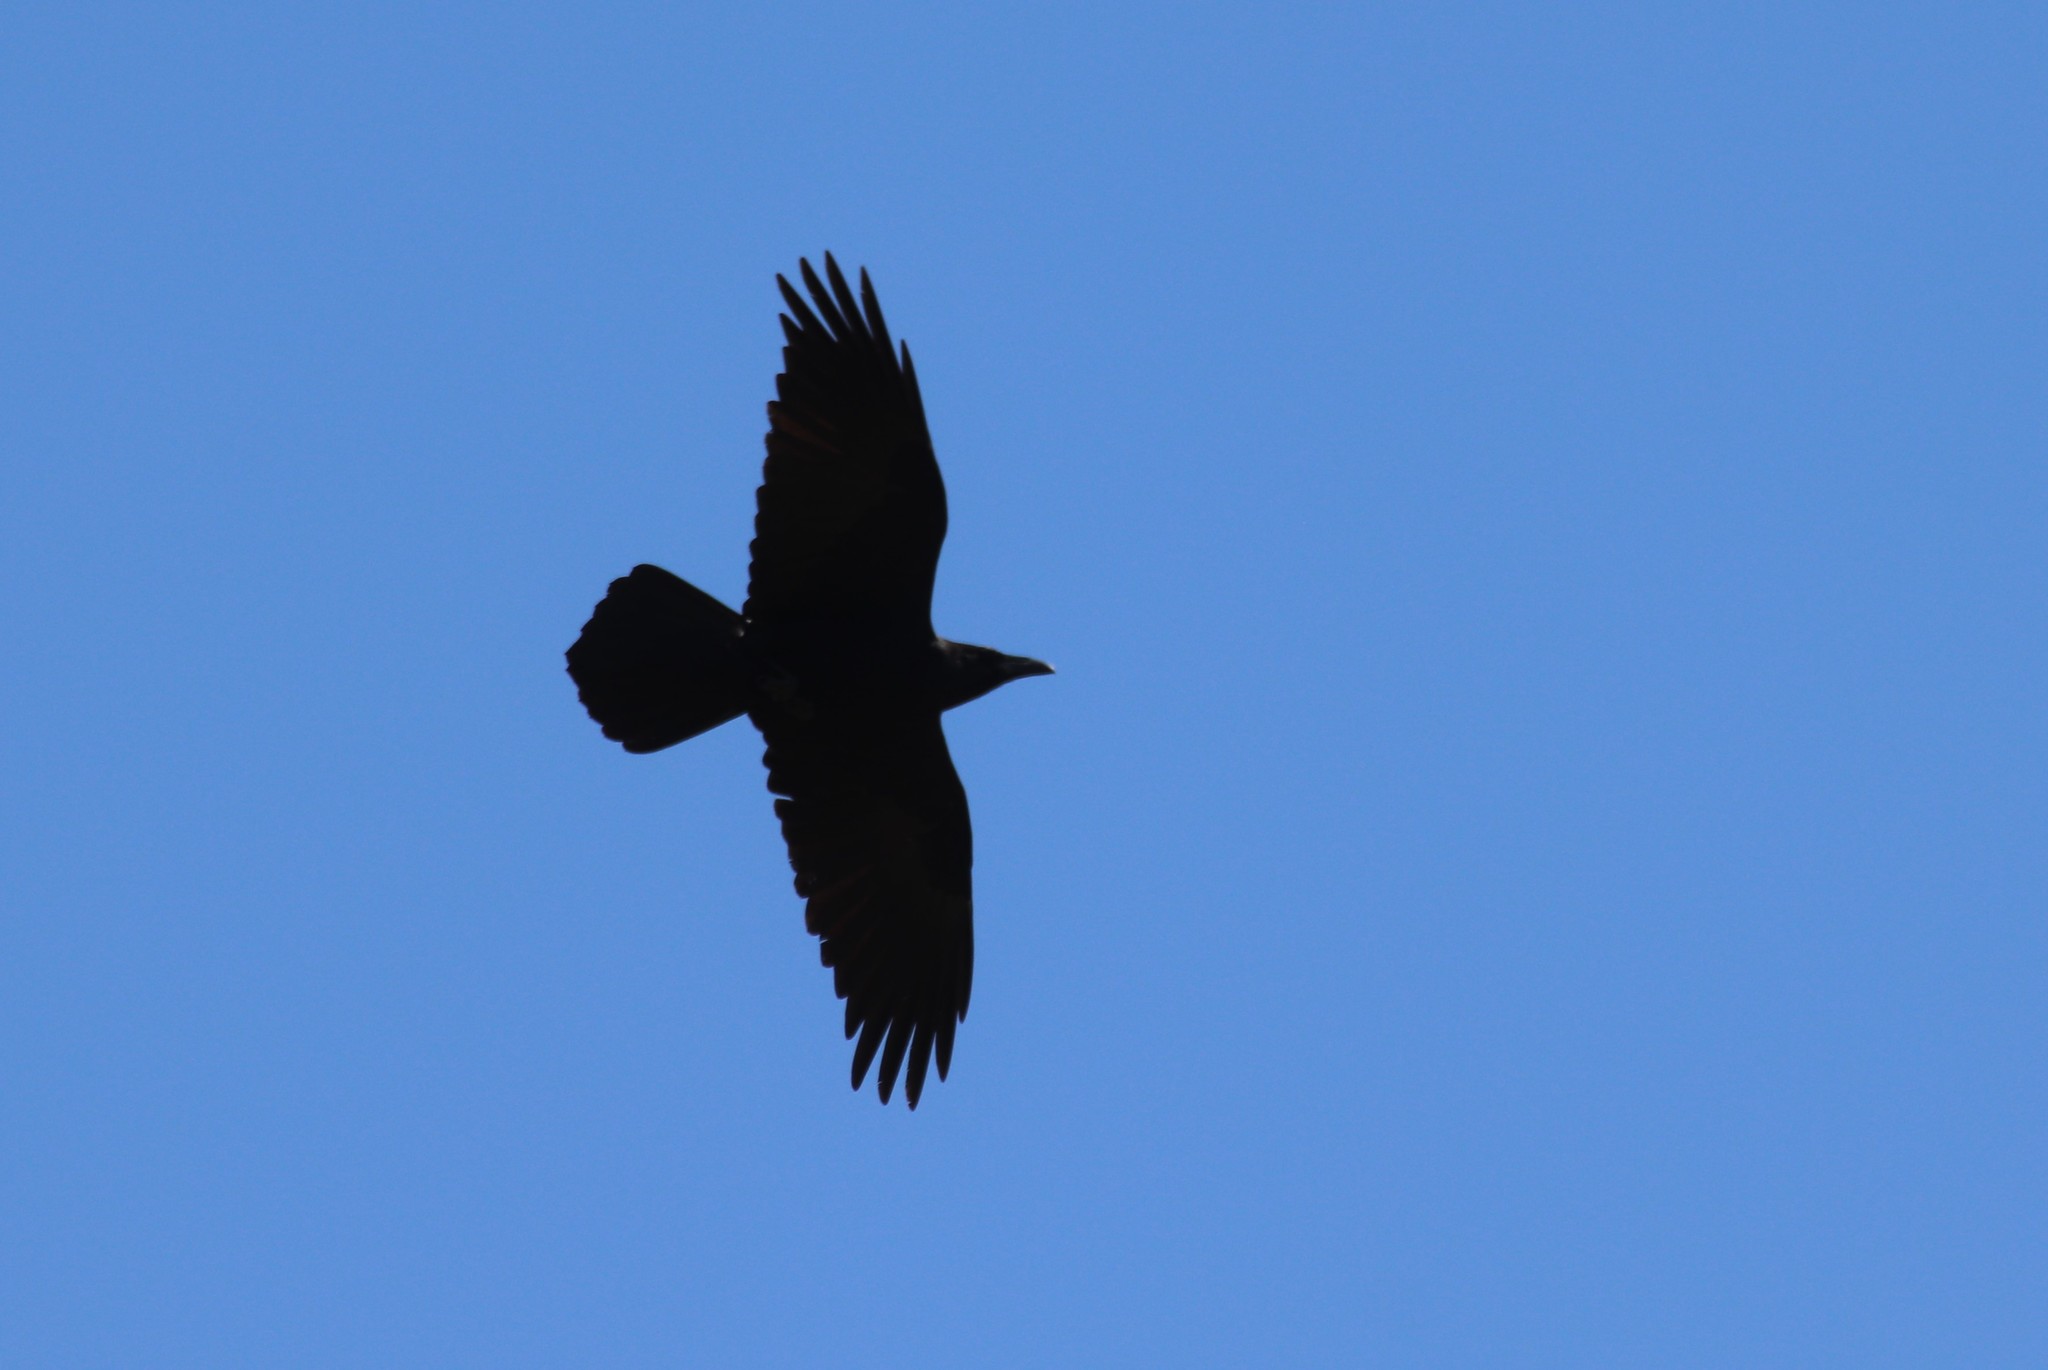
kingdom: Animalia
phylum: Chordata
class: Aves
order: Passeriformes
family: Corvidae
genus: Corvus
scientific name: Corvus corax
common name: Common raven
